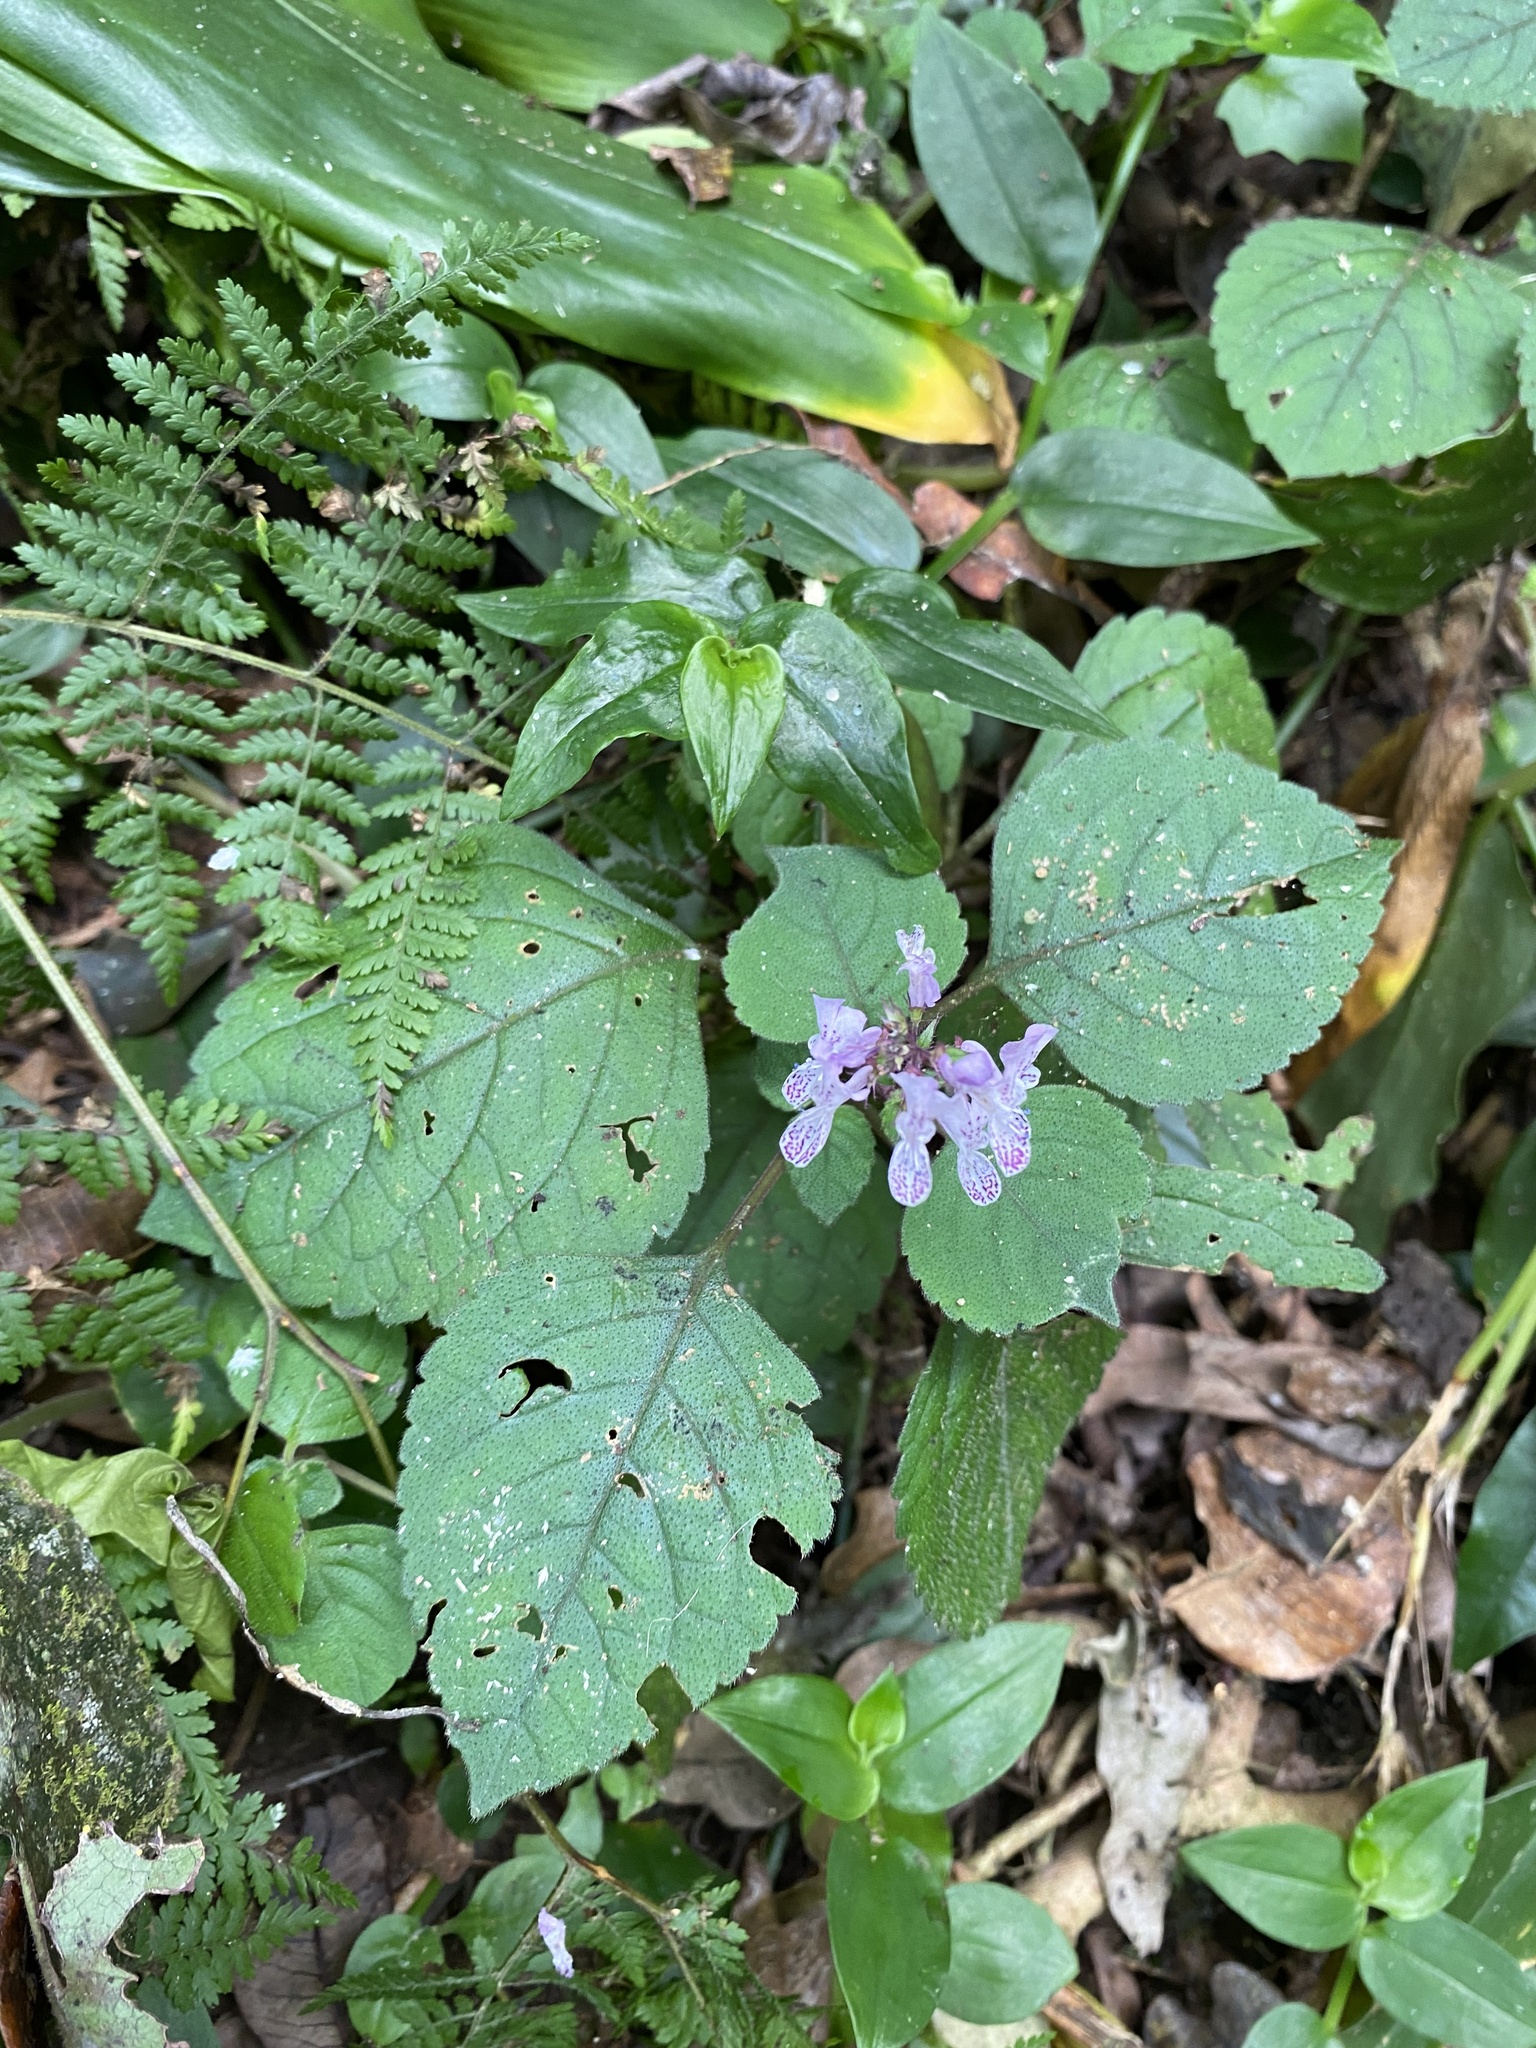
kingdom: Plantae
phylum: Tracheophyta
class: Magnoliopsida
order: Lamiales
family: Lamiaceae
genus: Plectranthus
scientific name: Plectranthus ciliatus
